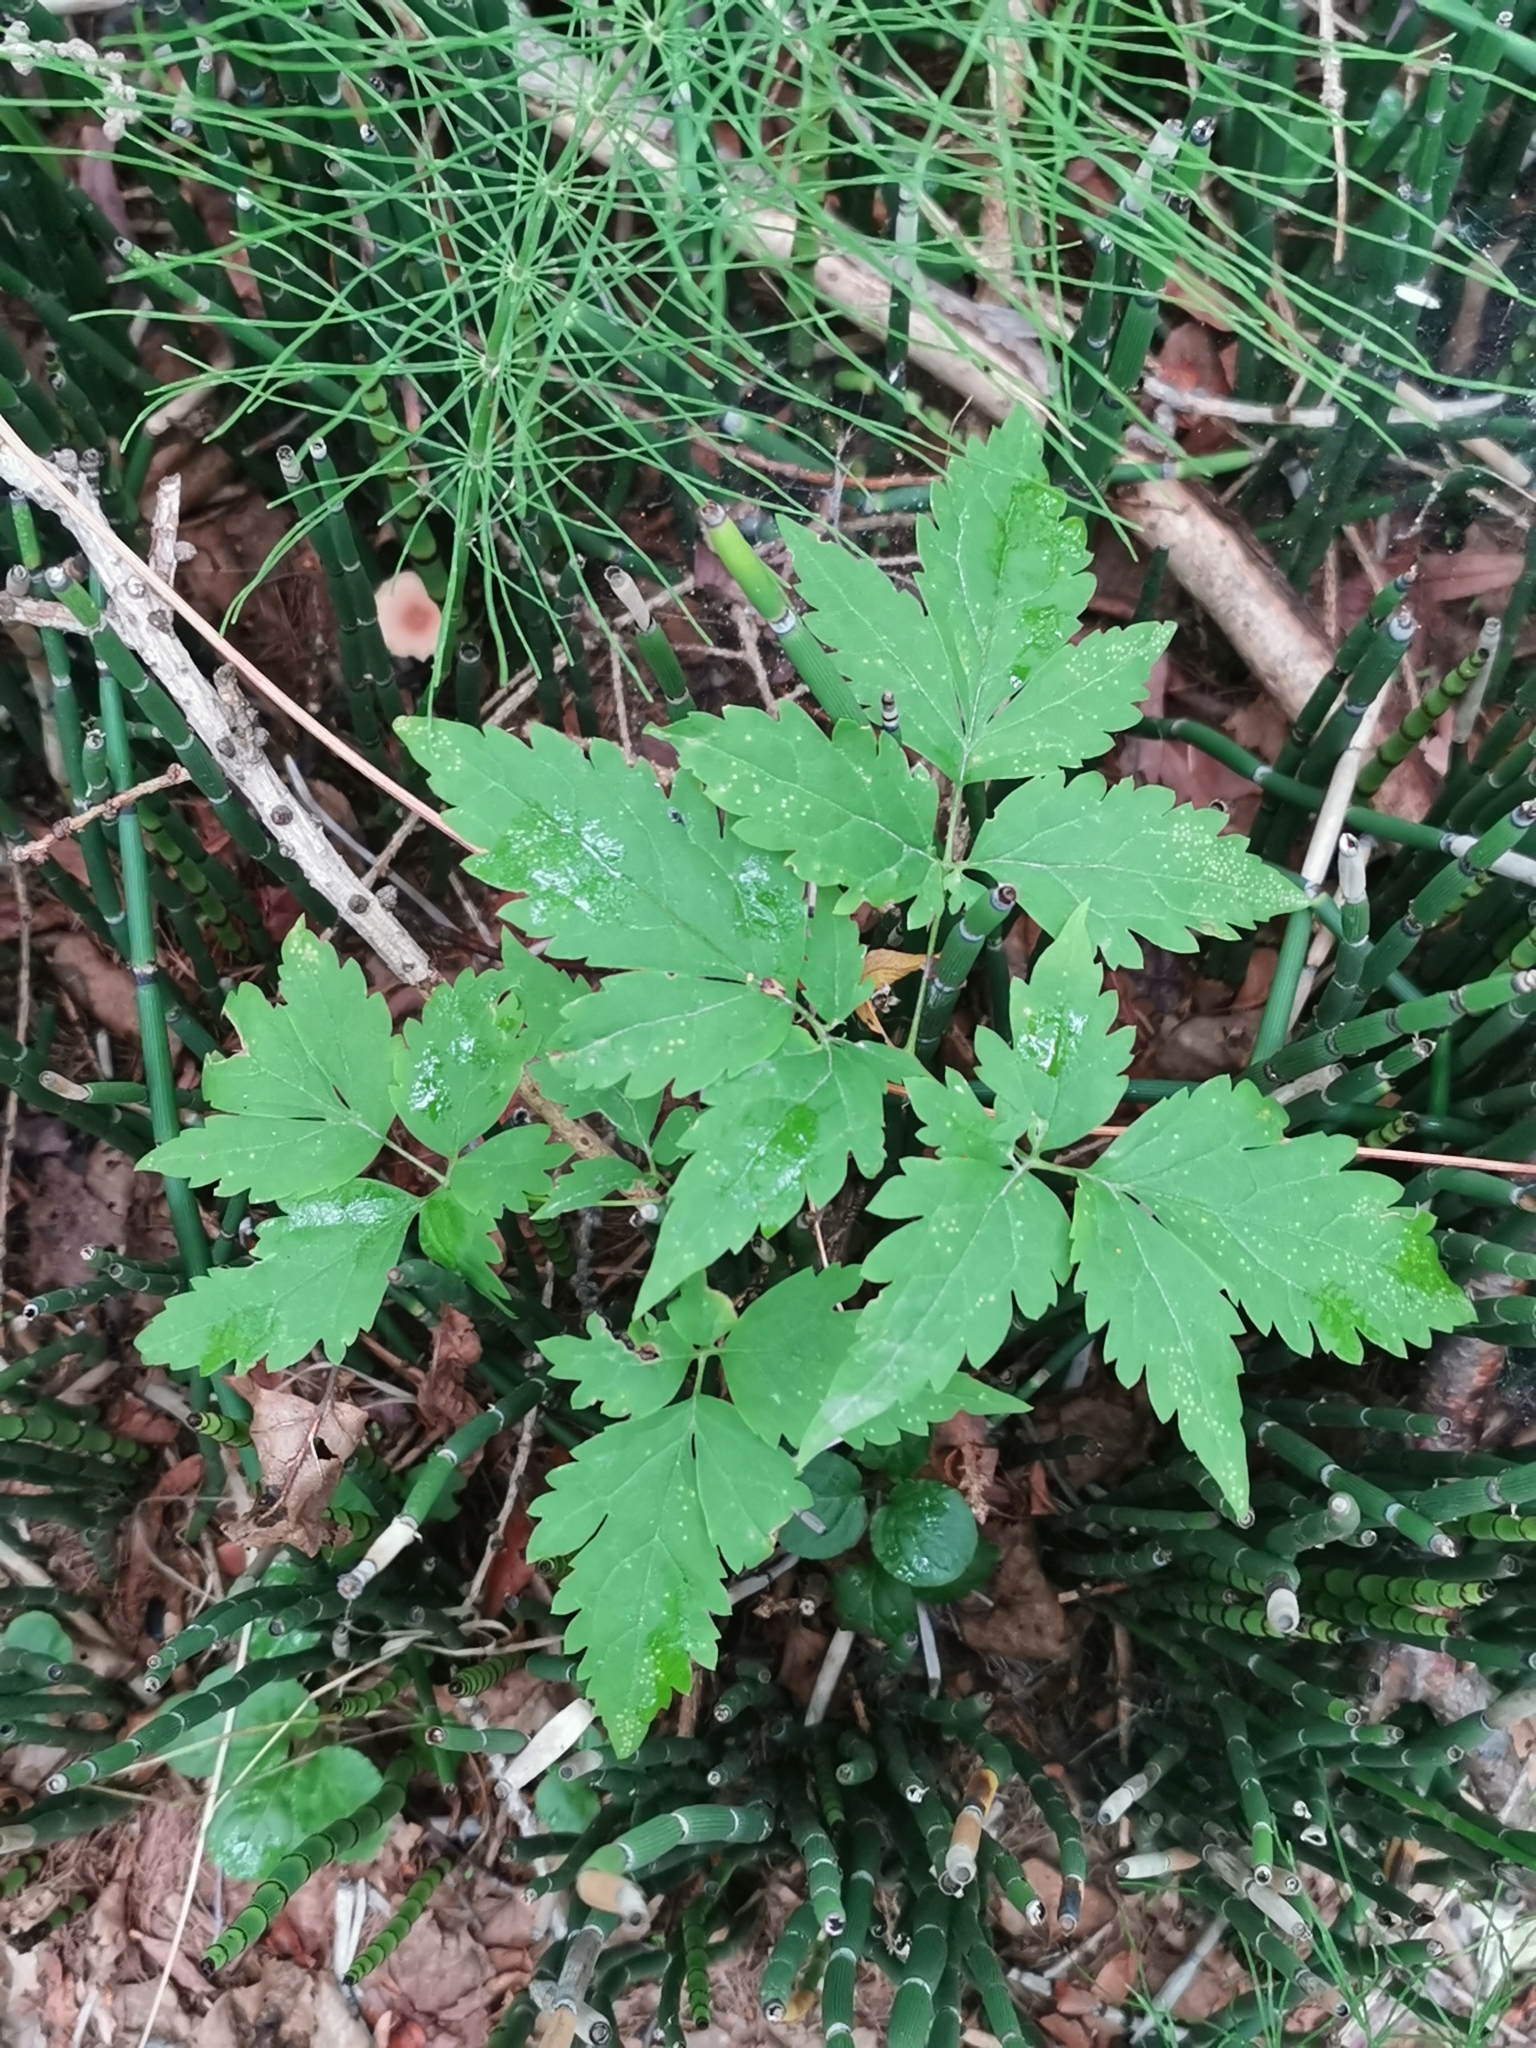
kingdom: Plantae
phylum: Tracheophyta
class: Magnoliopsida
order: Ranunculales
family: Ranunculaceae
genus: Clematis
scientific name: Clematis ochotensis
